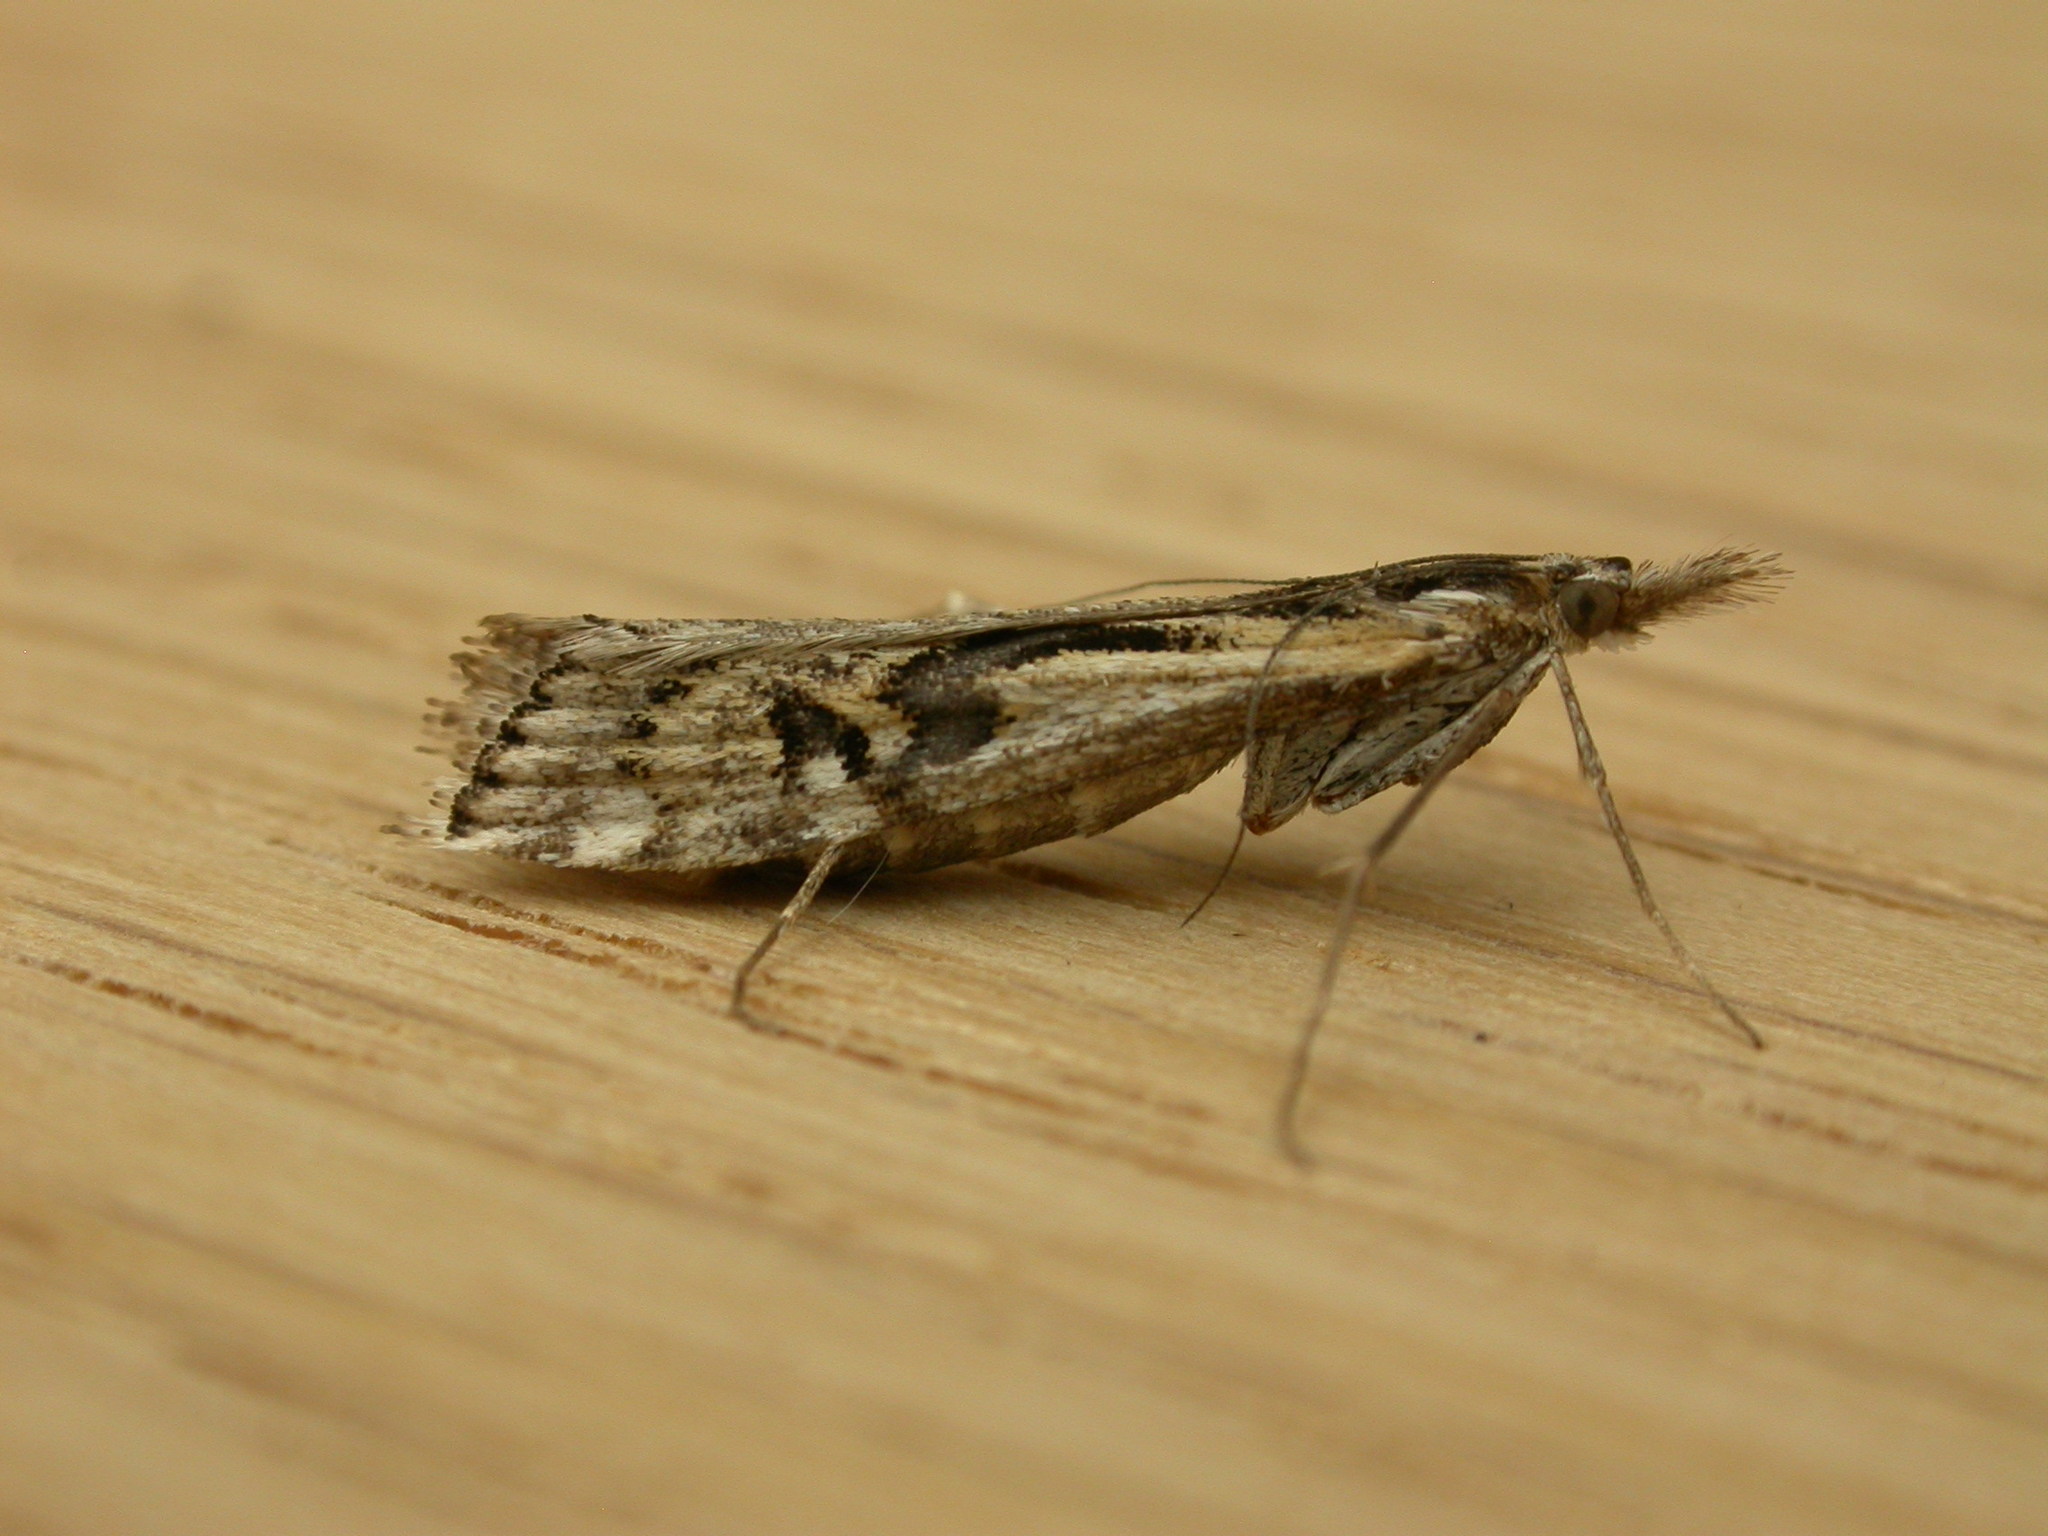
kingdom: Animalia
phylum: Arthropoda
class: Insecta
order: Lepidoptera
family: Crambidae
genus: Hednota
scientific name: Hednota pedionoma
